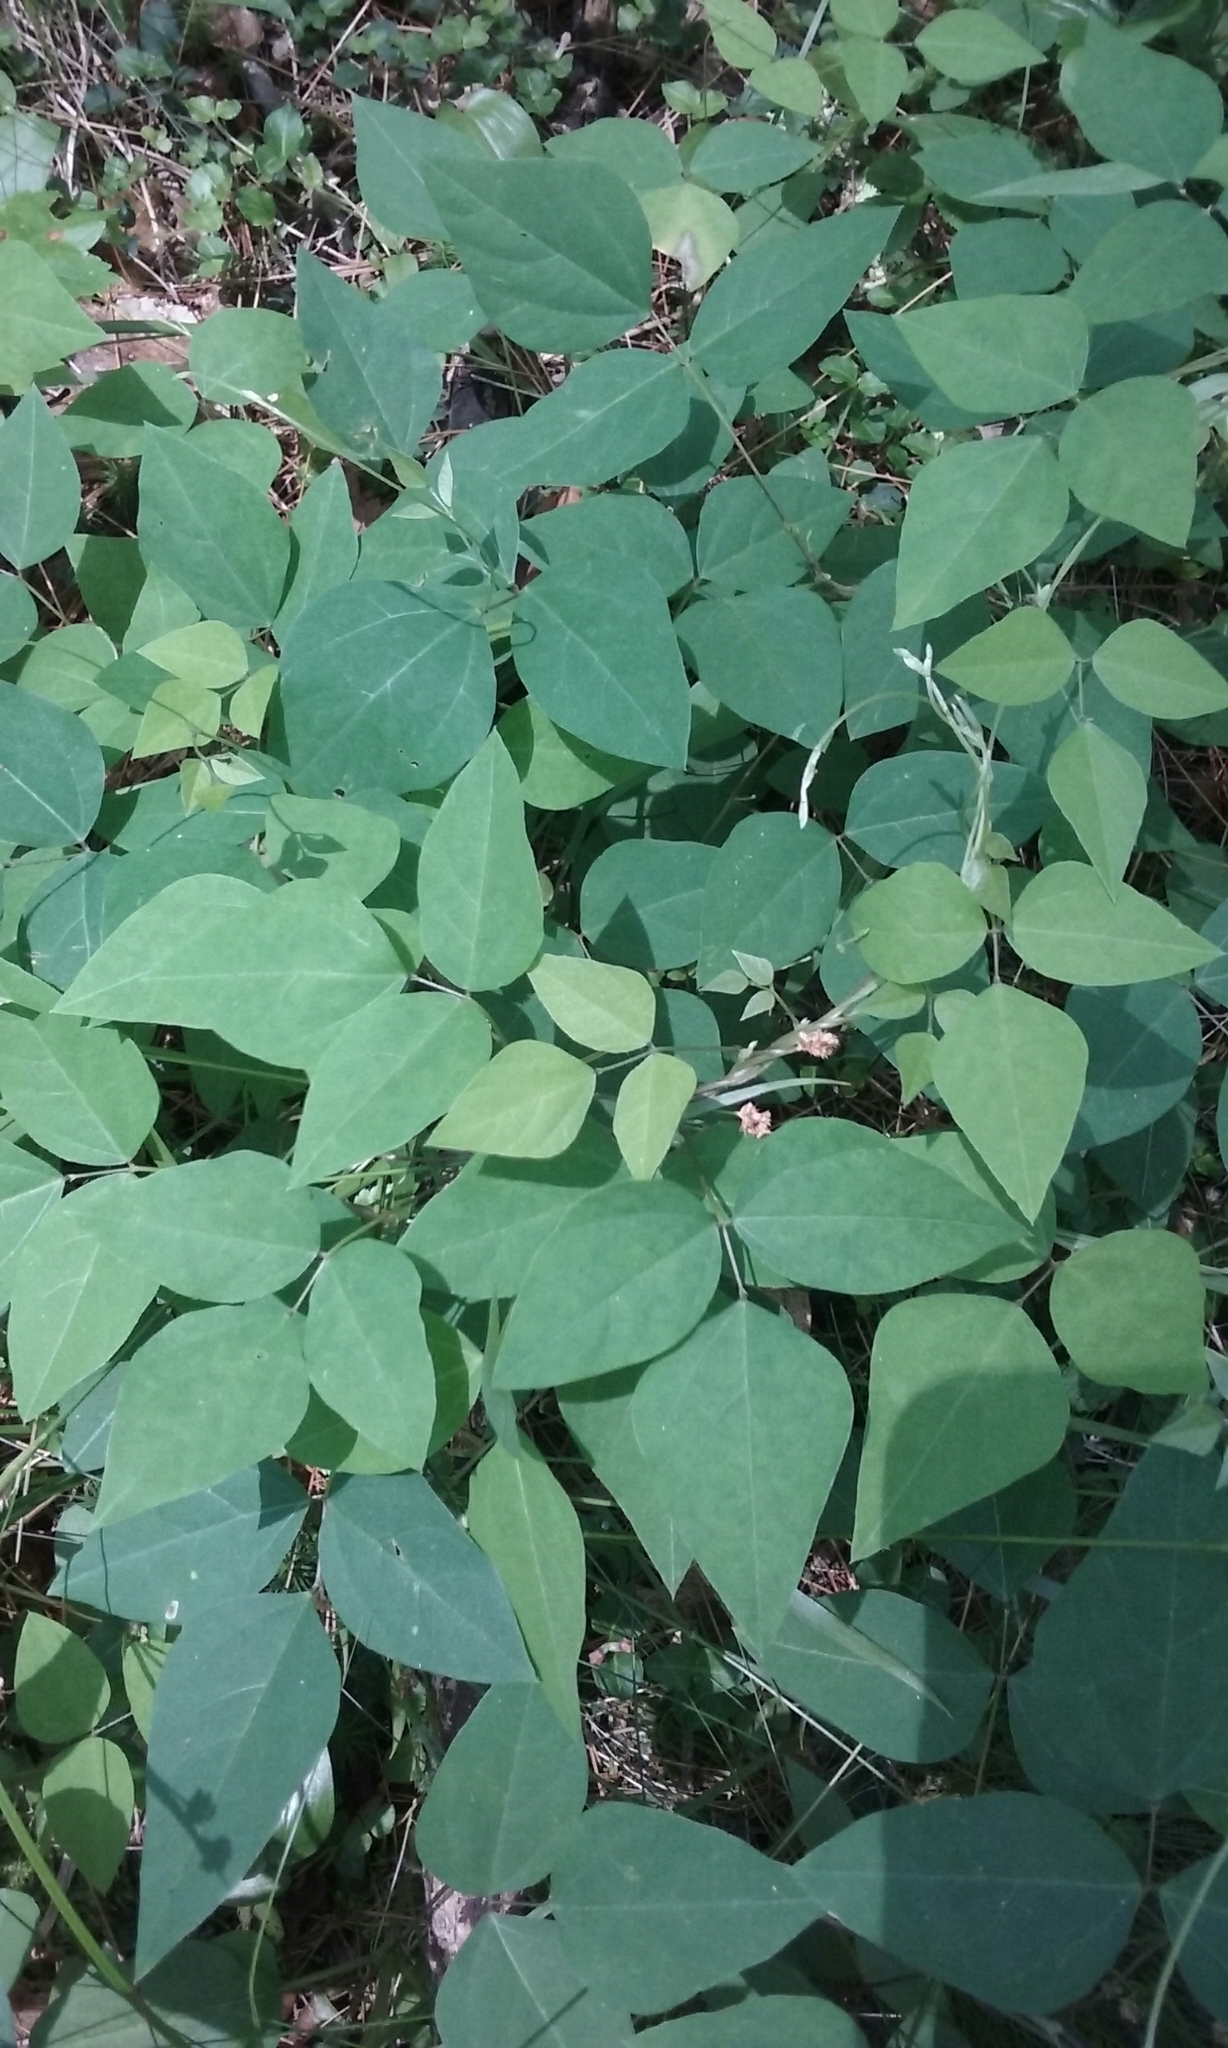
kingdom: Plantae
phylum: Tracheophyta
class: Magnoliopsida
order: Fabales
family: Fabaceae
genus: Amphicarpaea
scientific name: Amphicarpaea bracteata
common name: American hog peanut
